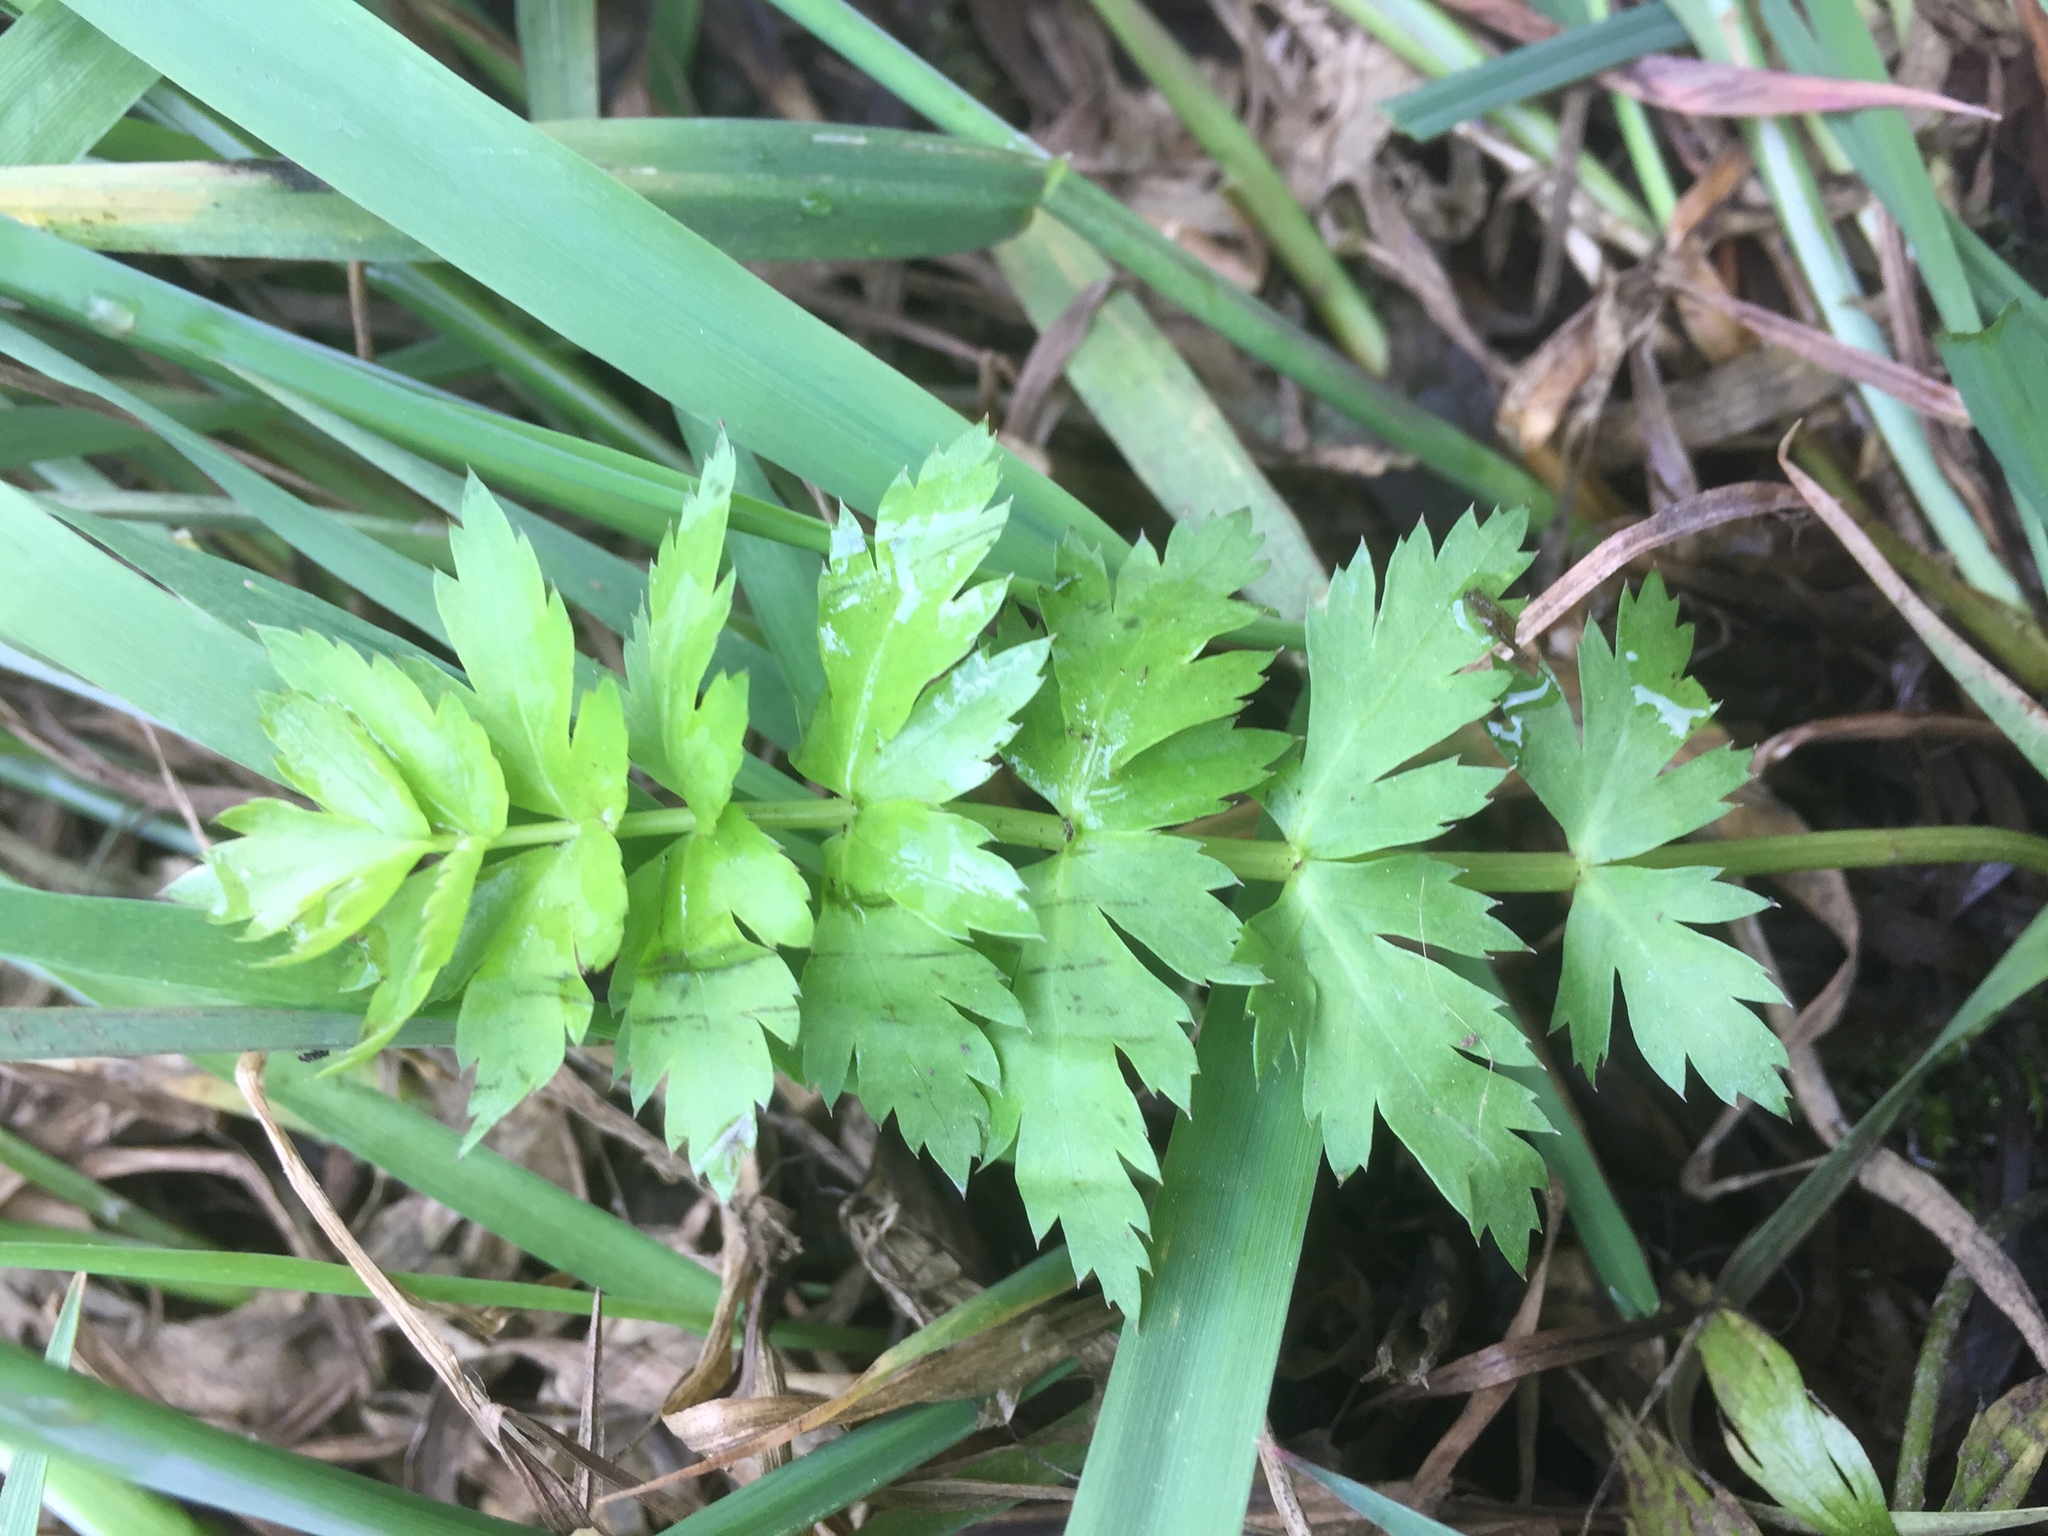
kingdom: Plantae
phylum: Tracheophyta
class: Magnoliopsida
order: Apiales
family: Apiaceae
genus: Sium
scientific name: Sium latifolium
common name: Greater water-parsnip
